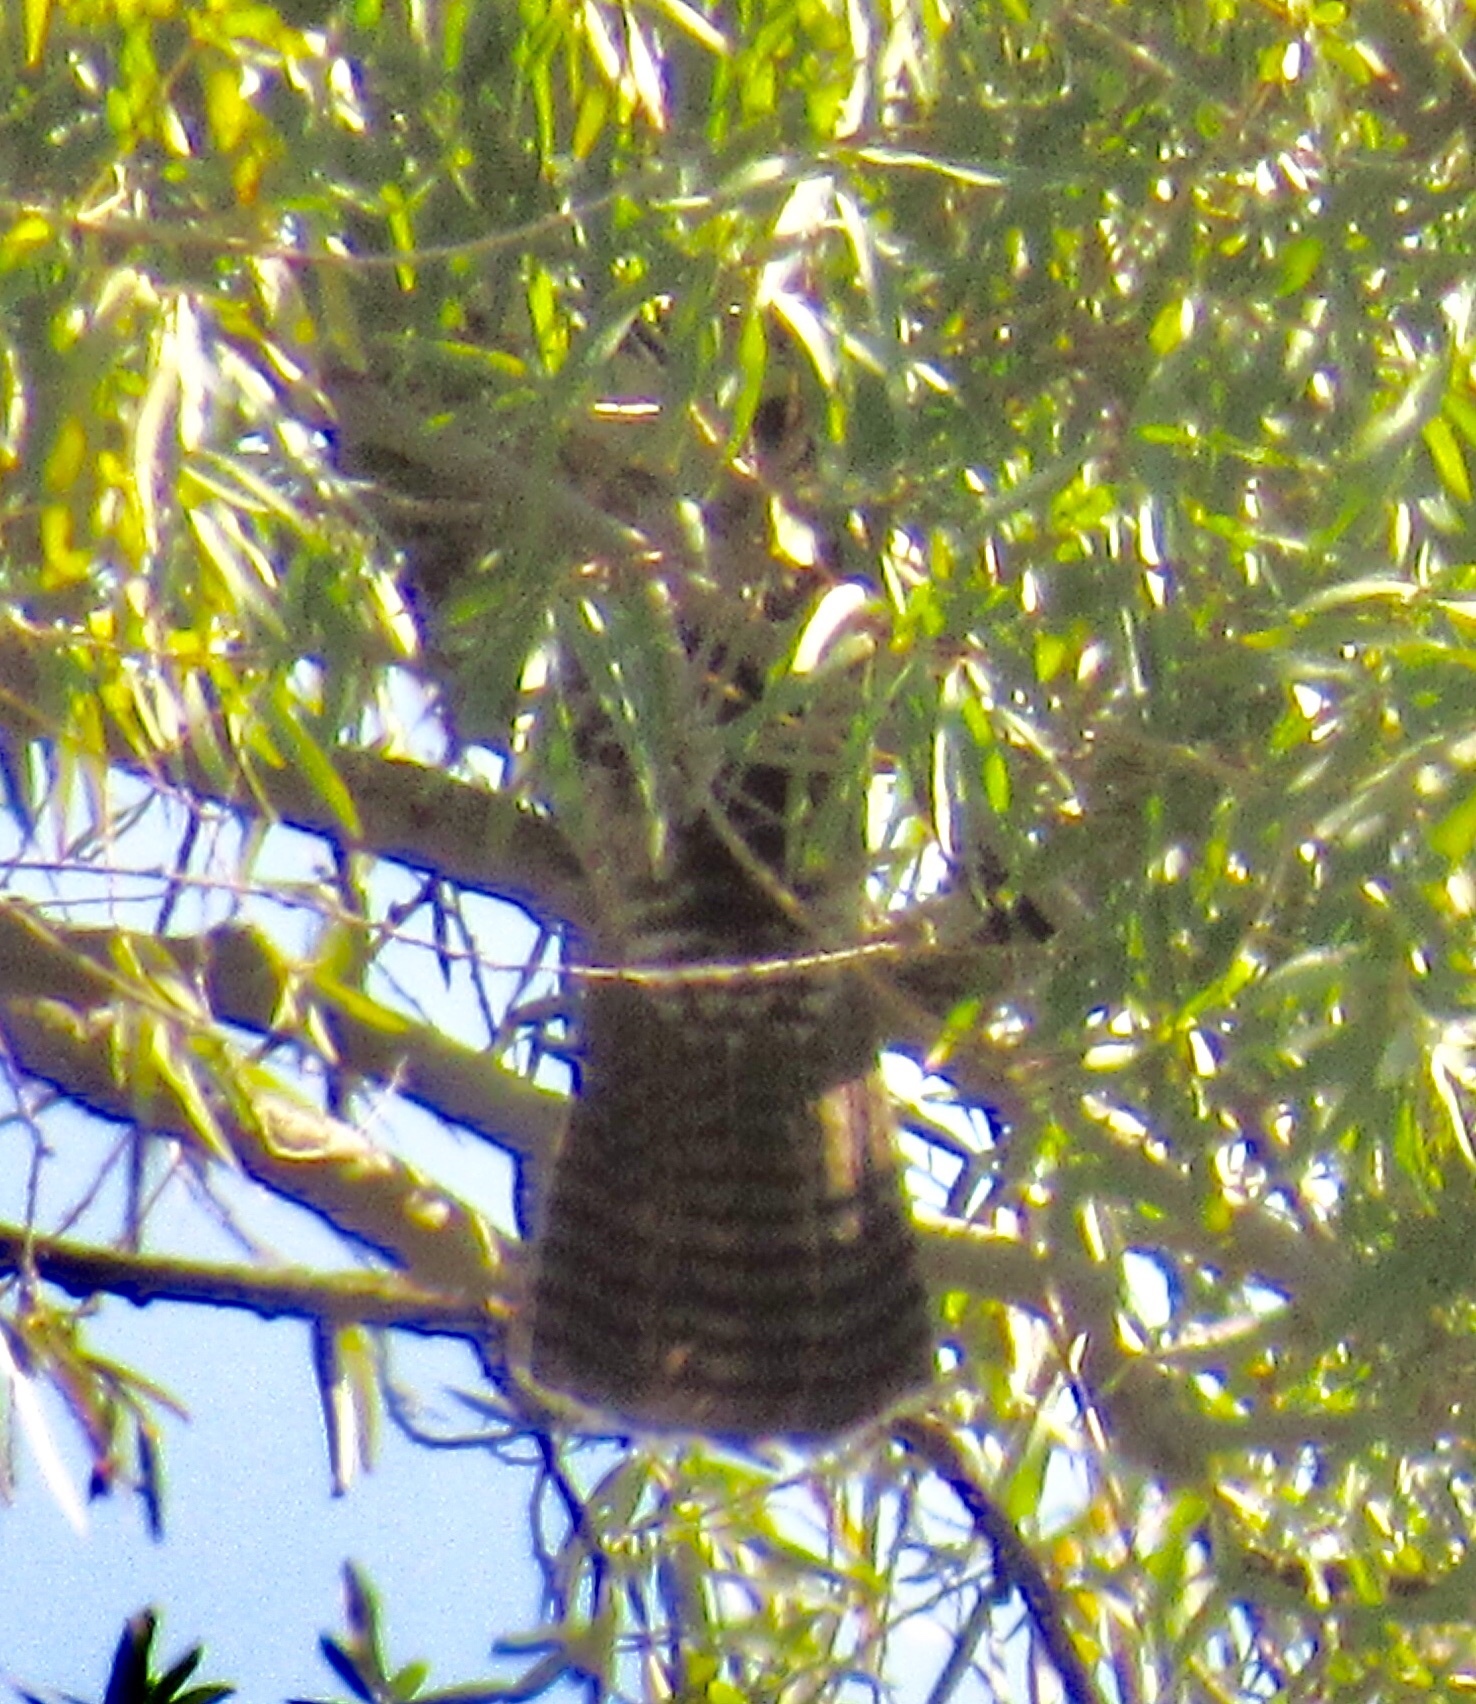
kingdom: Animalia
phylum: Chordata
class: Aves
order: Accipitriformes
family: Accipitridae
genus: Buteo
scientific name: Buteo jamaicensis
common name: Red-tailed hawk
